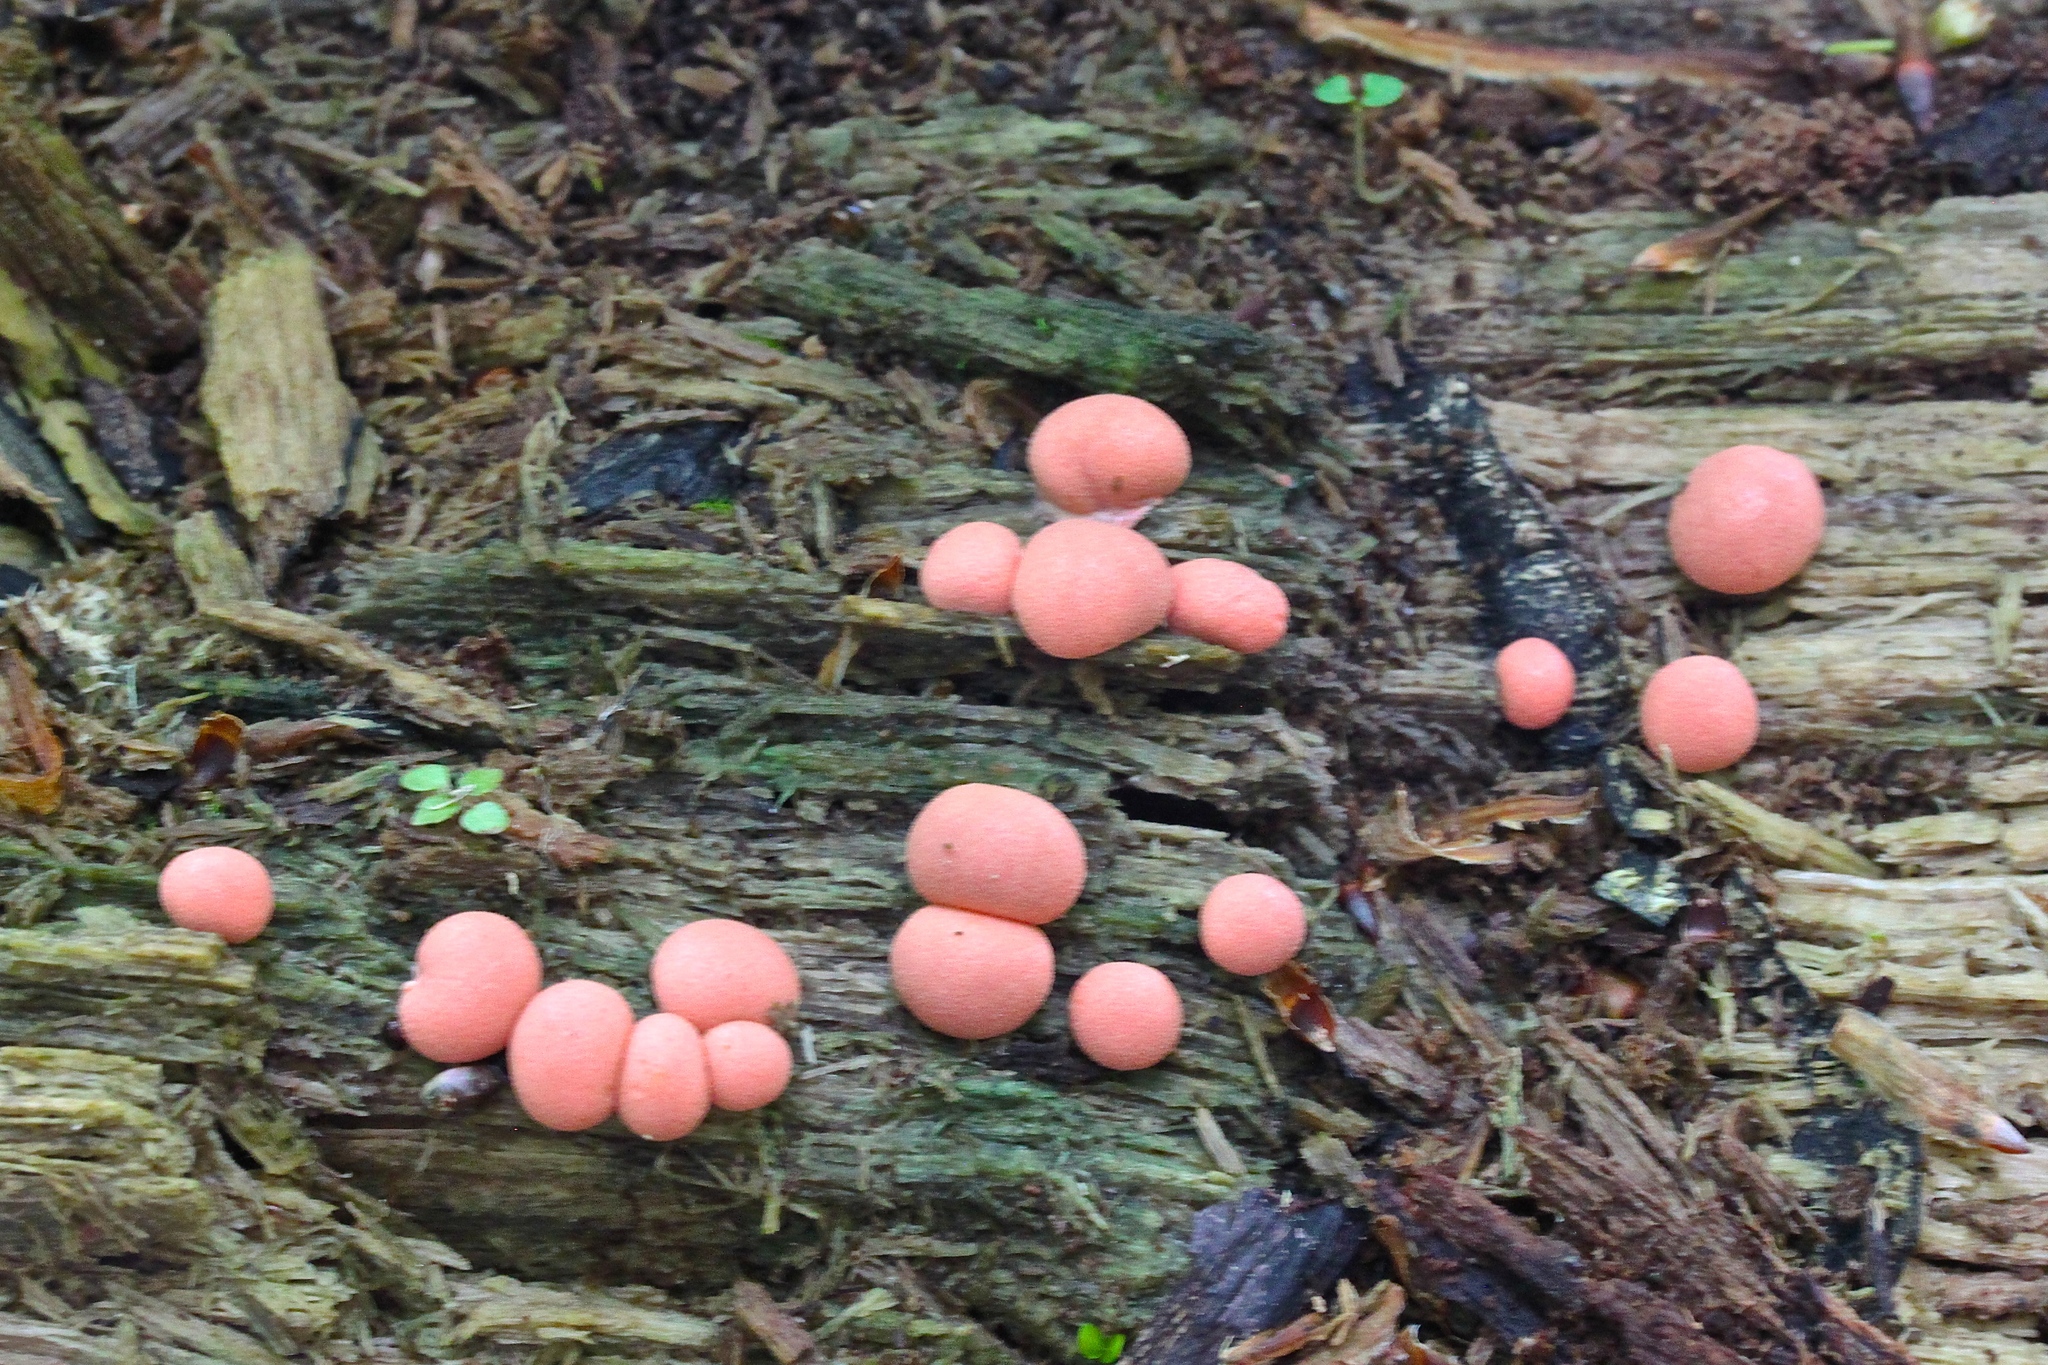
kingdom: Protozoa
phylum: Mycetozoa
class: Myxomycetes
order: Cribrariales
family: Tubiferaceae
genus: Lycogala
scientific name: Lycogala epidendrum
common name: Wolf's milk
